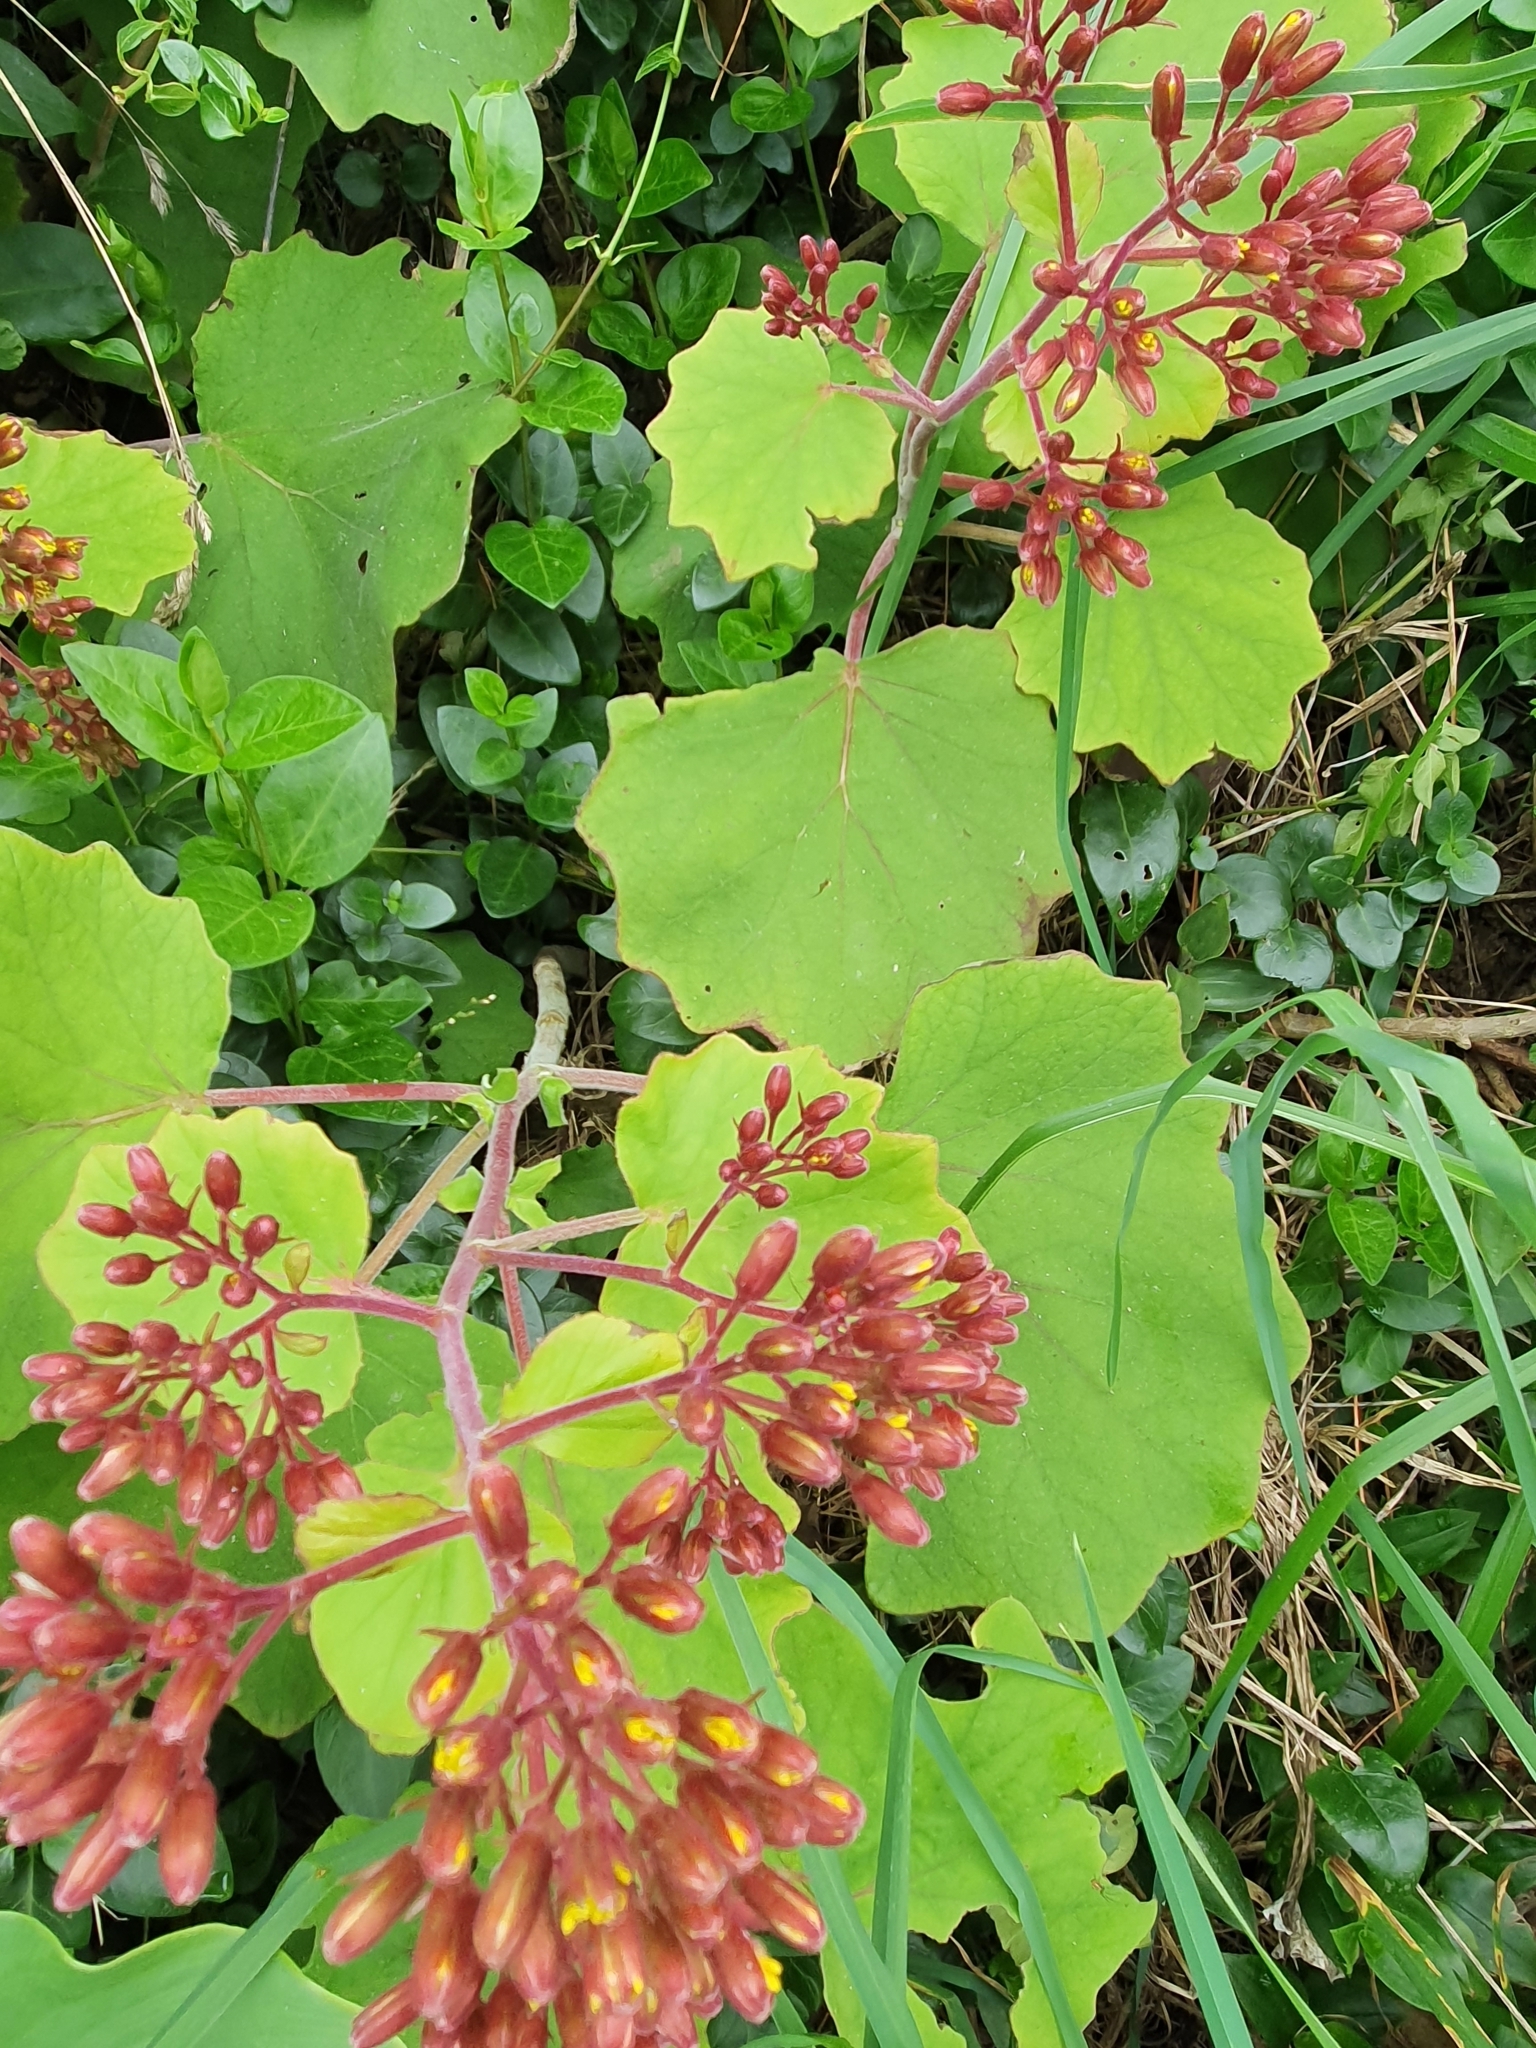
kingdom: Plantae
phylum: Tracheophyta
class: Magnoliopsida
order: Asterales
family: Asteraceae
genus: Roldana
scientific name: Roldana petasitis
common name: California-geranium
